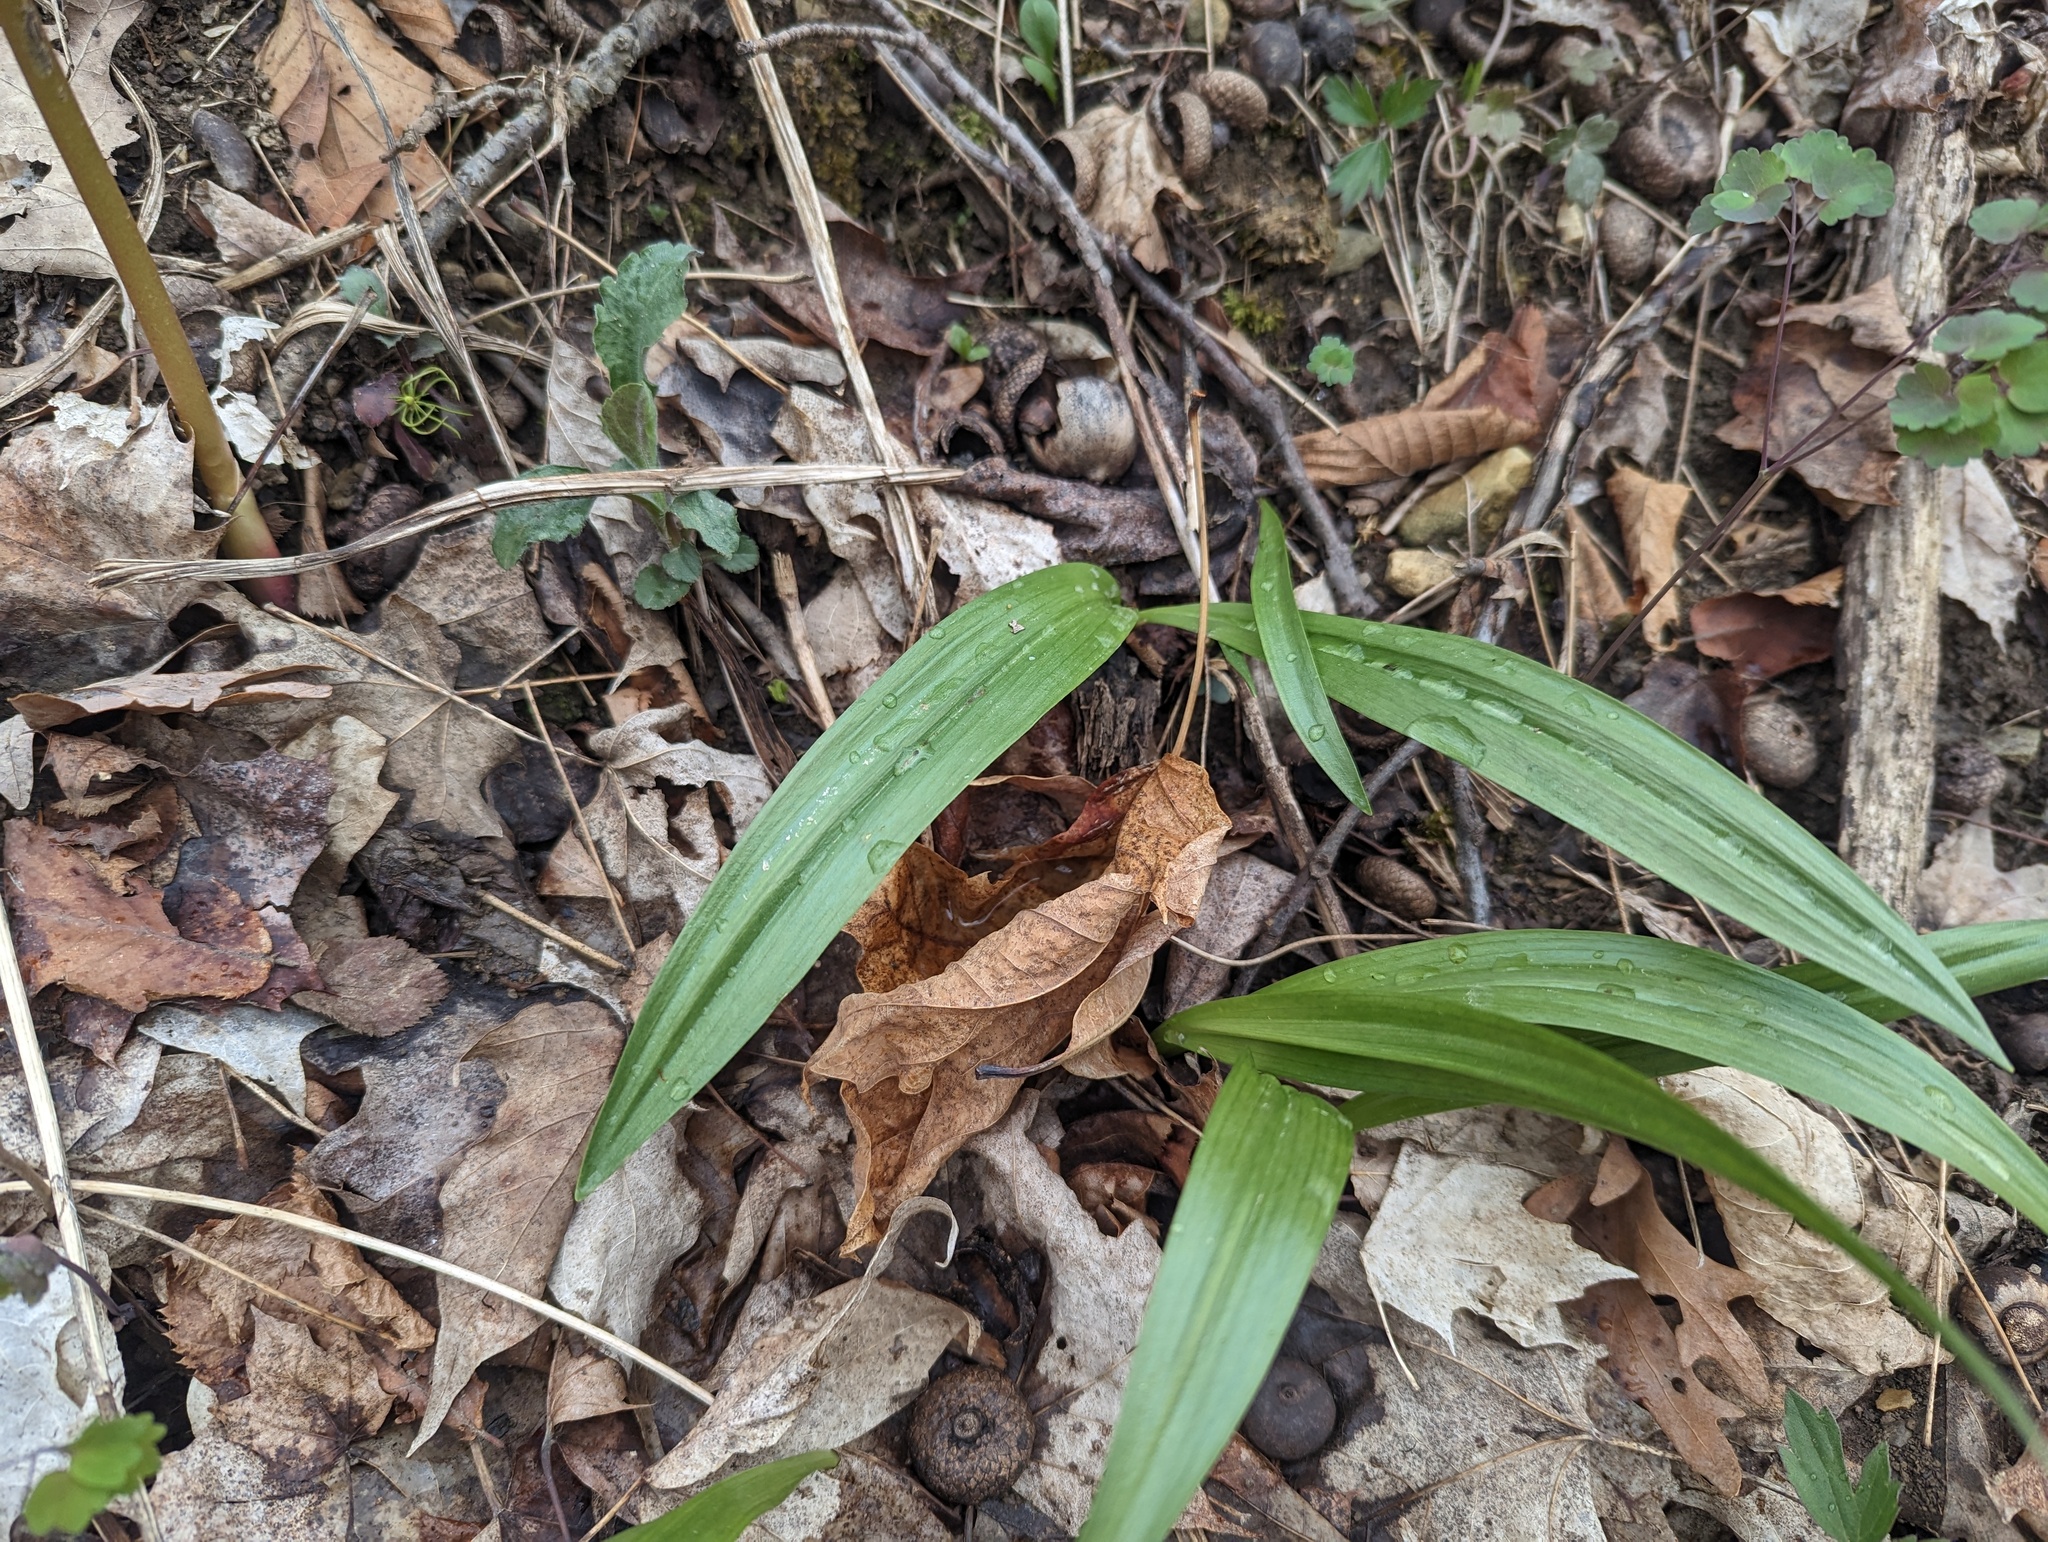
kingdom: Plantae
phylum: Tracheophyta
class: Liliopsida
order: Asparagales
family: Amaryllidaceae
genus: Allium
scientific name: Allium tricoccum
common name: Ramp
